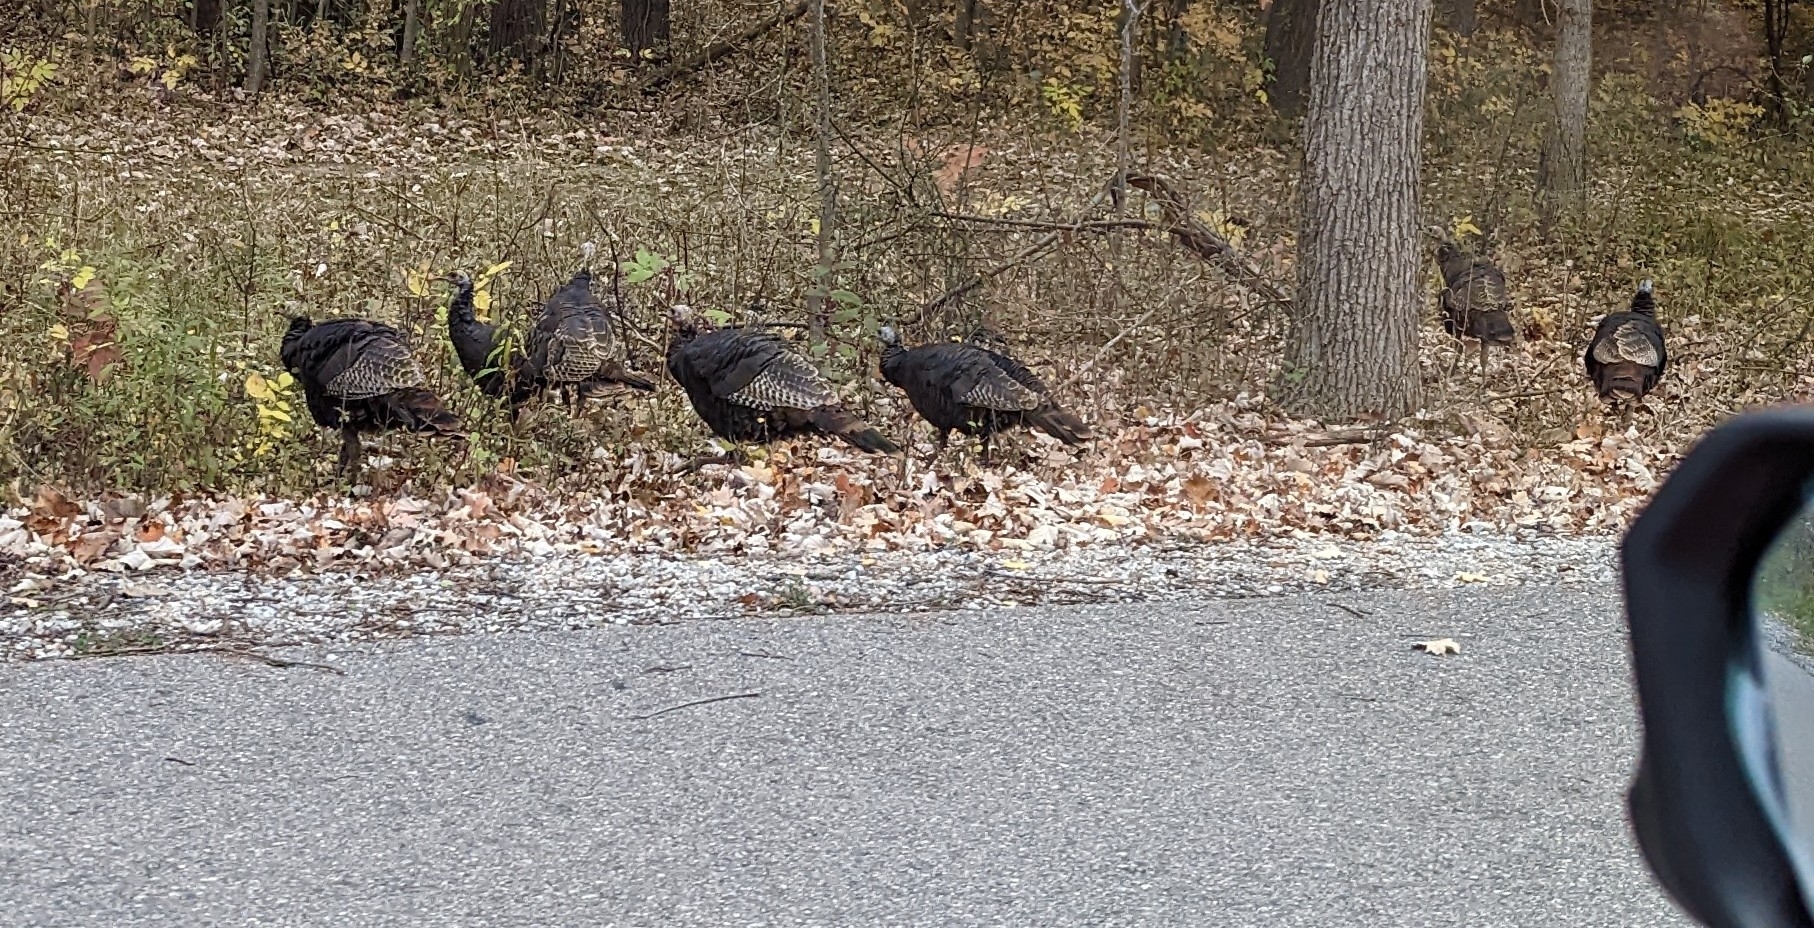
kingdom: Animalia
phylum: Chordata
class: Aves
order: Galliformes
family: Phasianidae
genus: Meleagris
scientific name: Meleagris gallopavo
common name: Wild turkey
